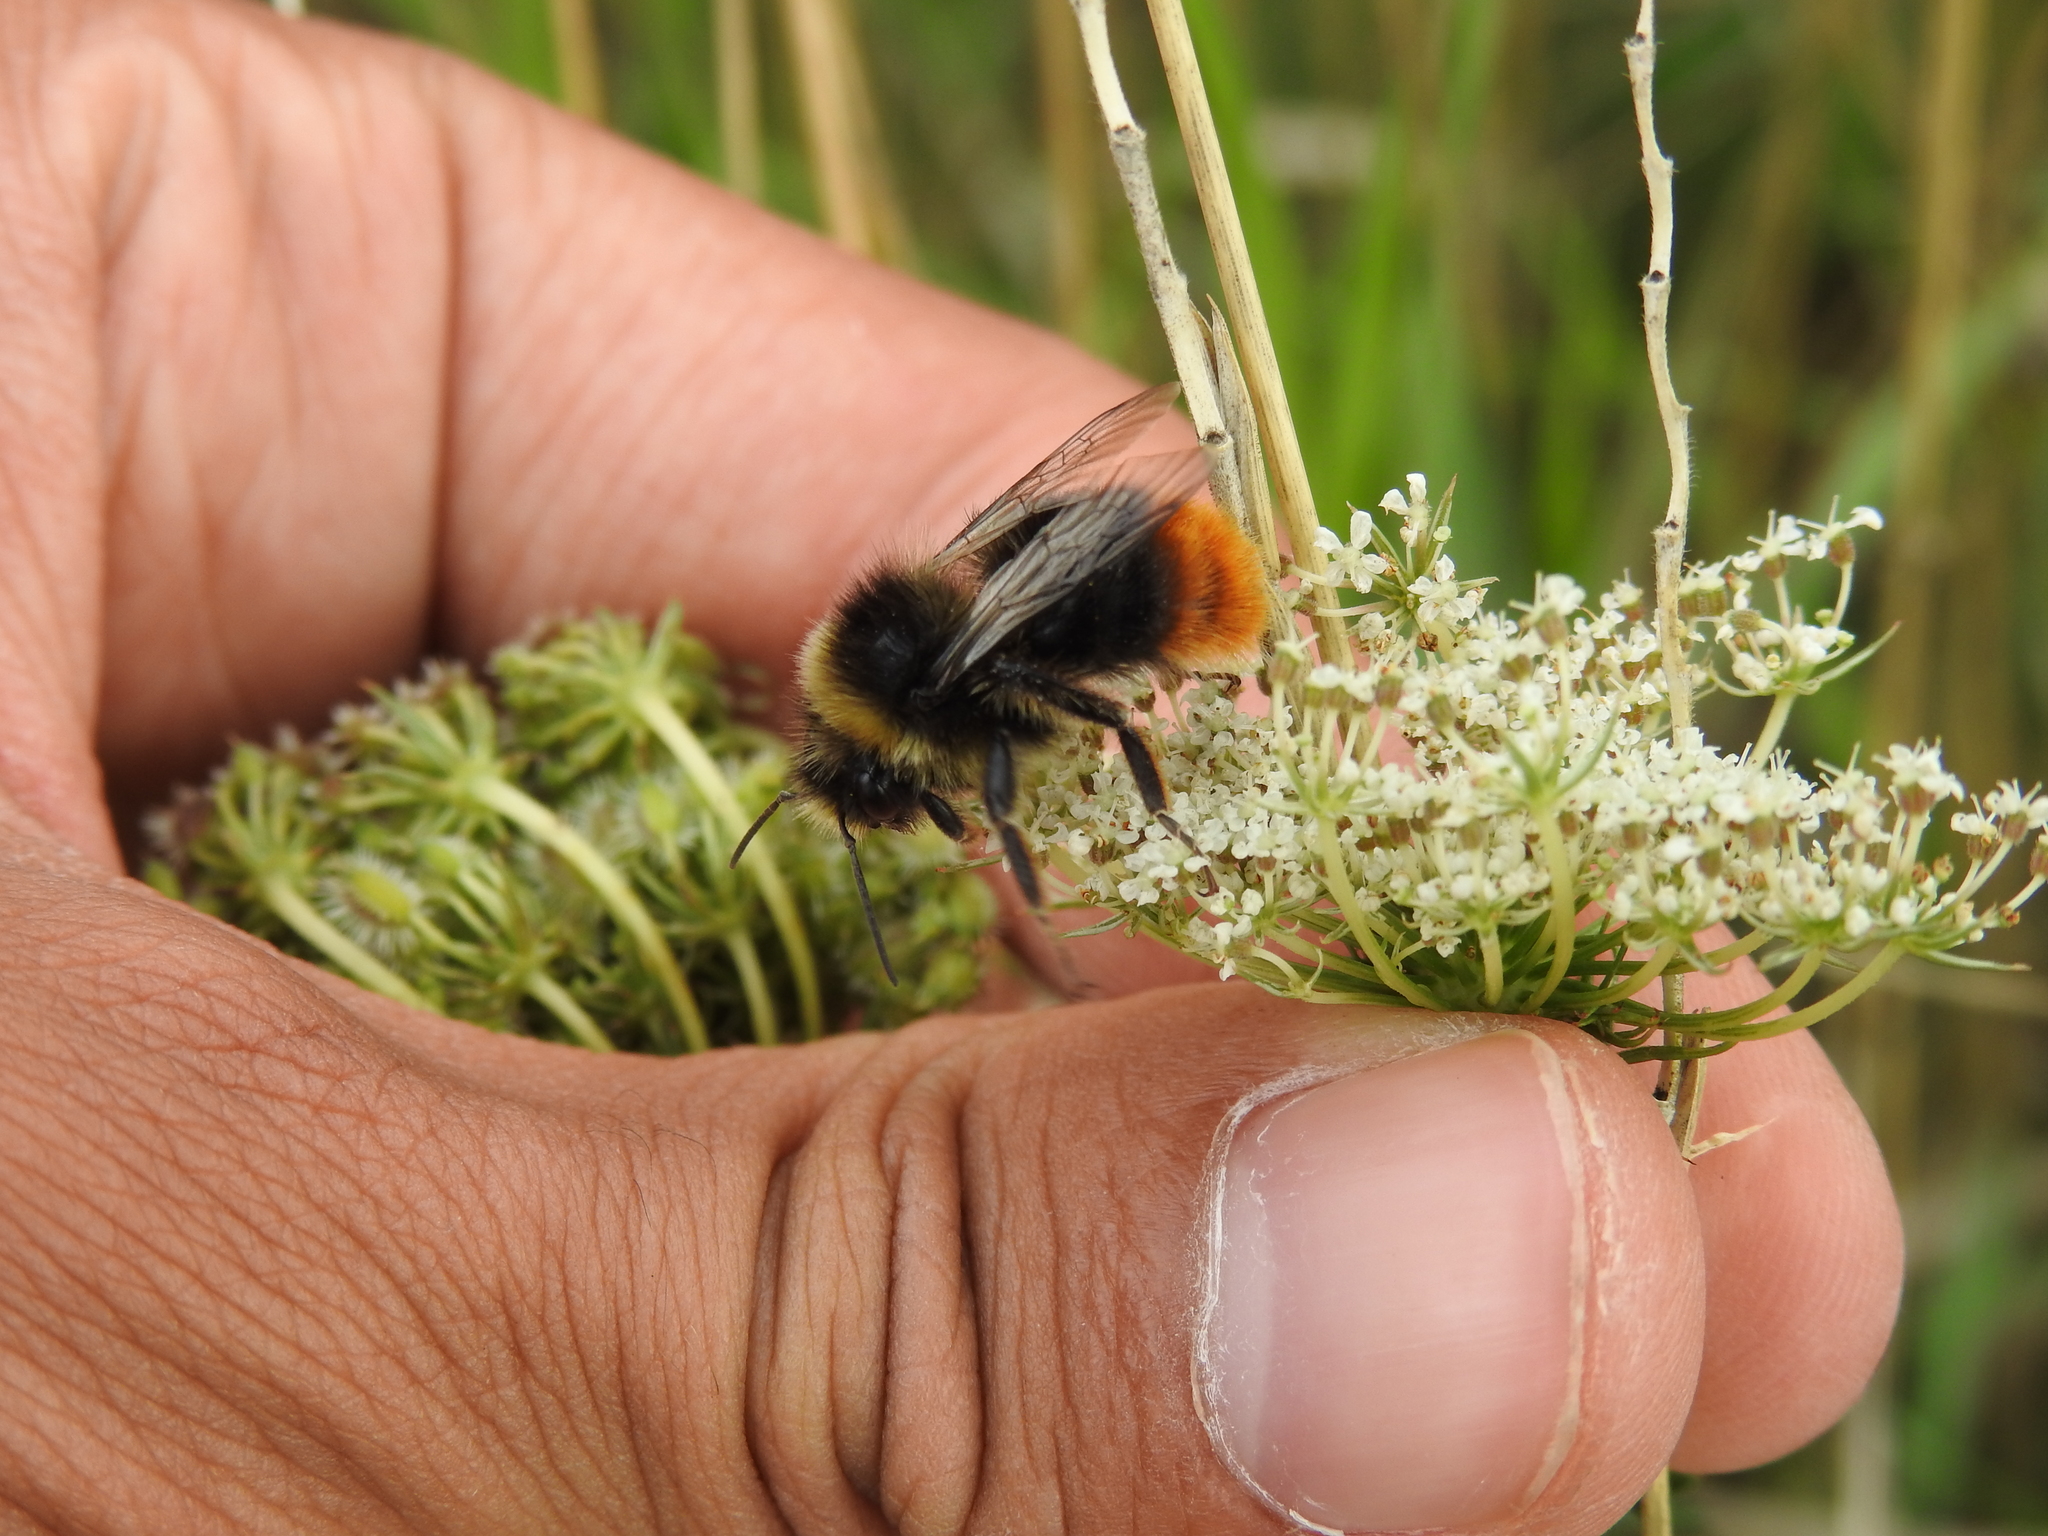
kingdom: Animalia
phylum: Arthropoda
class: Insecta
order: Hymenoptera
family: Apidae
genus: Bombus
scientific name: Bombus lapidarius
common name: Large red-tailed humble-bee
